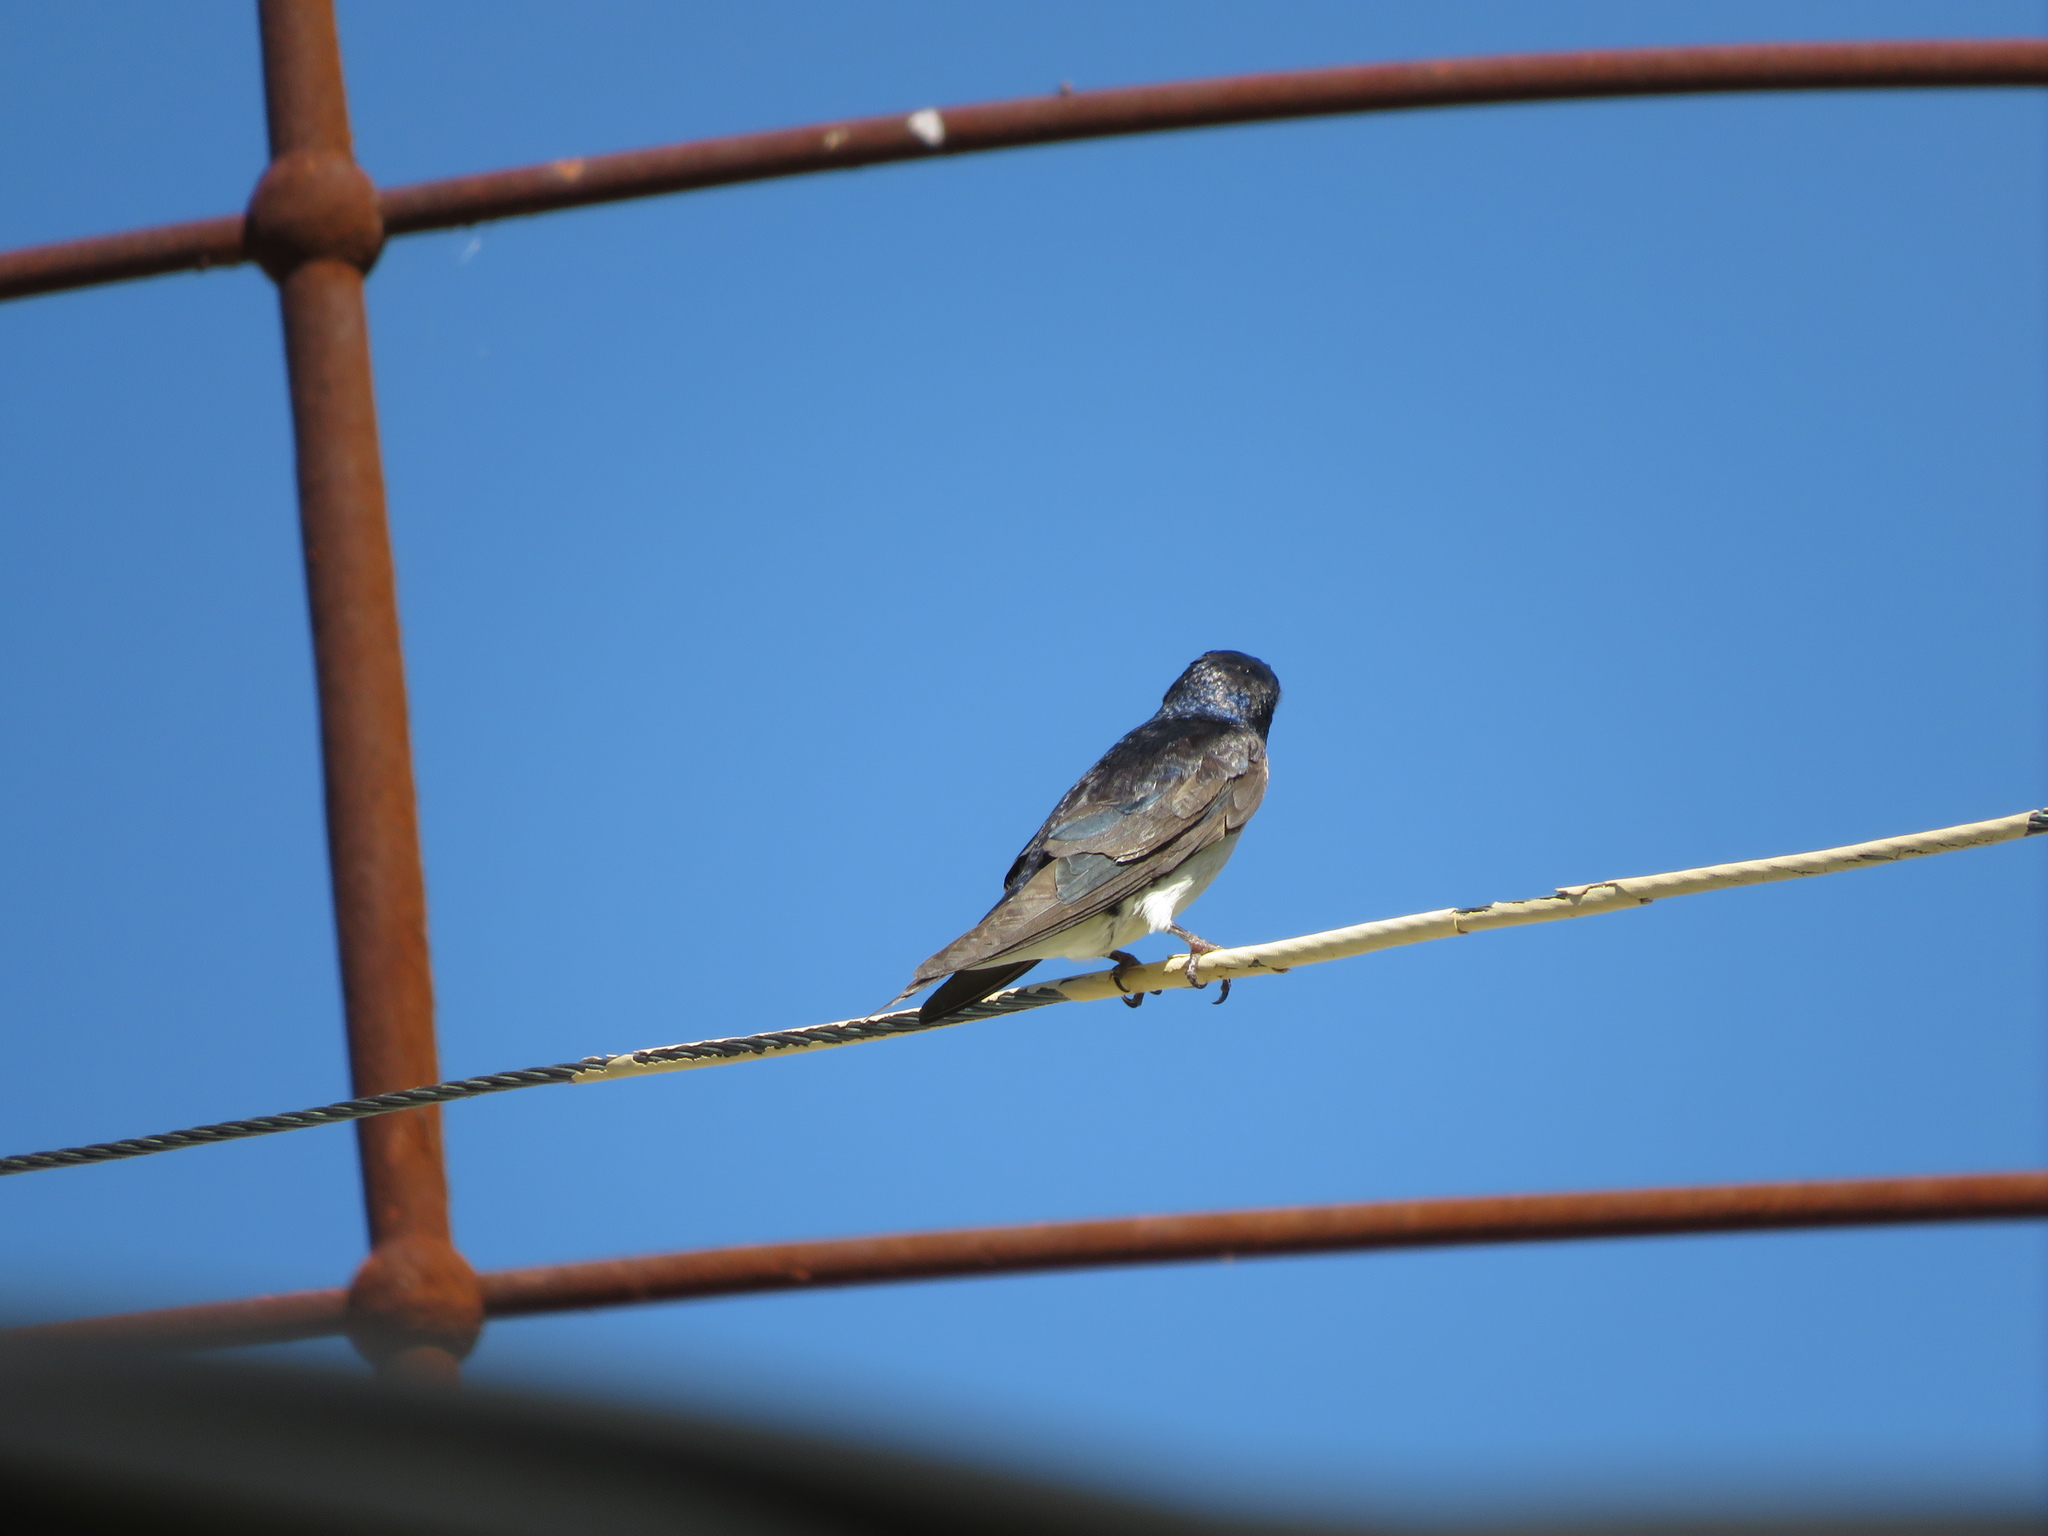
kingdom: Animalia
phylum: Chordata
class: Aves
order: Passeriformes
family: Hirundinidae
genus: Progne
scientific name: Progne chalybea
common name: Grey-breasted martin
